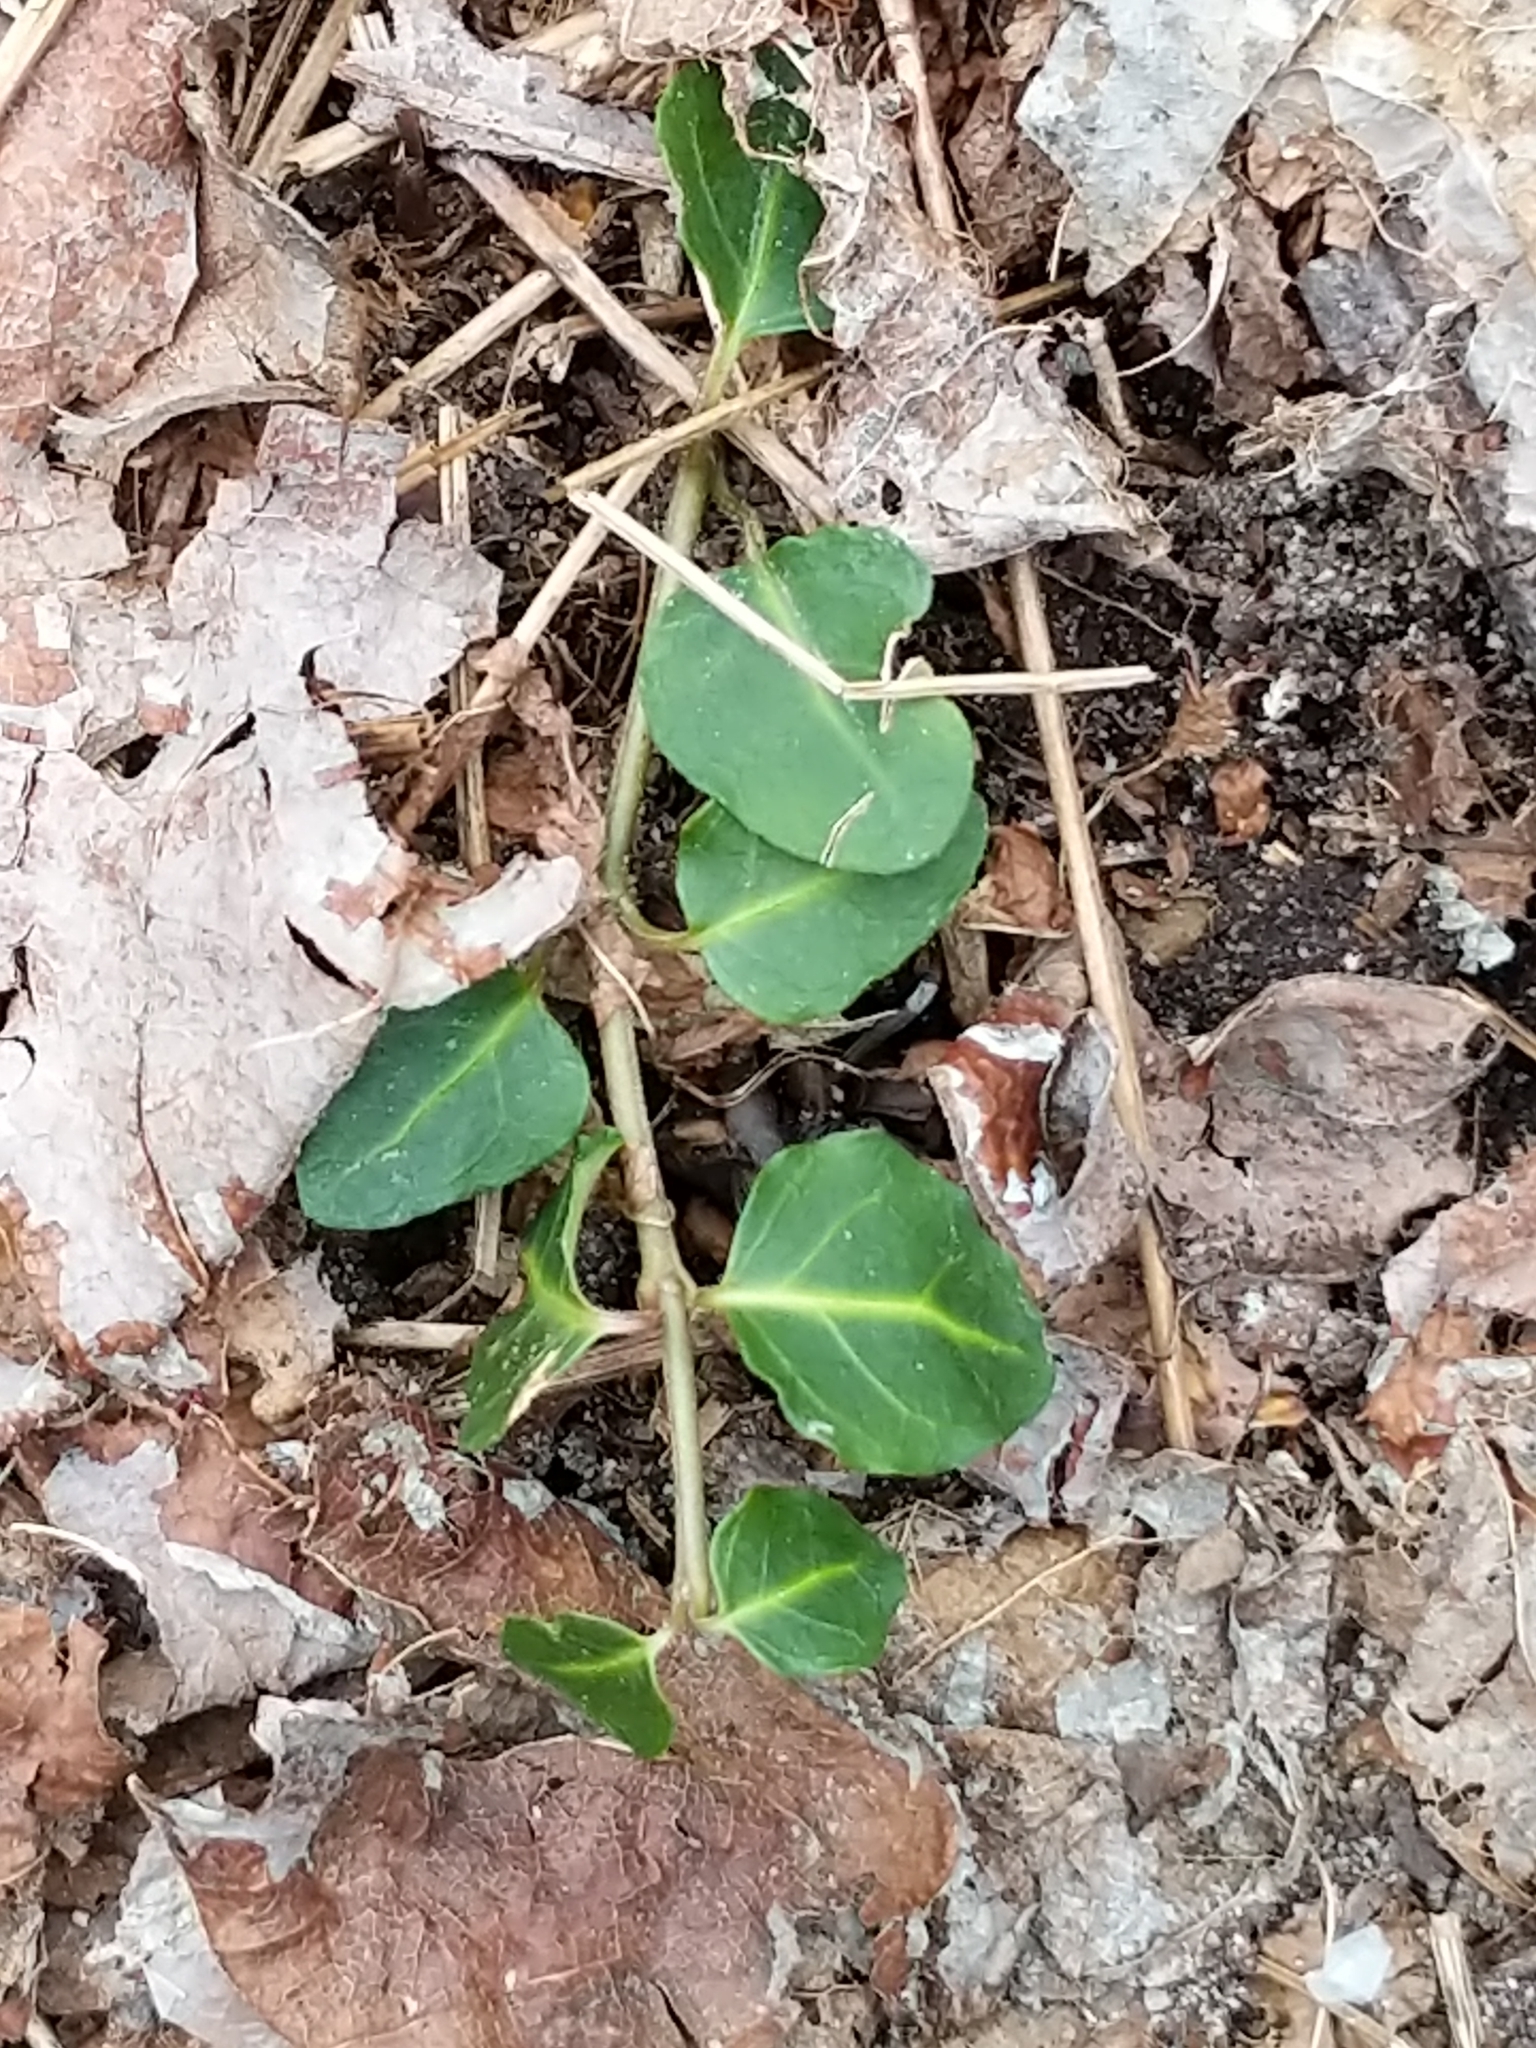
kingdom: Plantae
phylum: Tracheophyta
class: Magnoliopsida
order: Gentianales
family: Rubiaceae
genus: Mitchella
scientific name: Mitchella repens
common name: Partridge-berry
